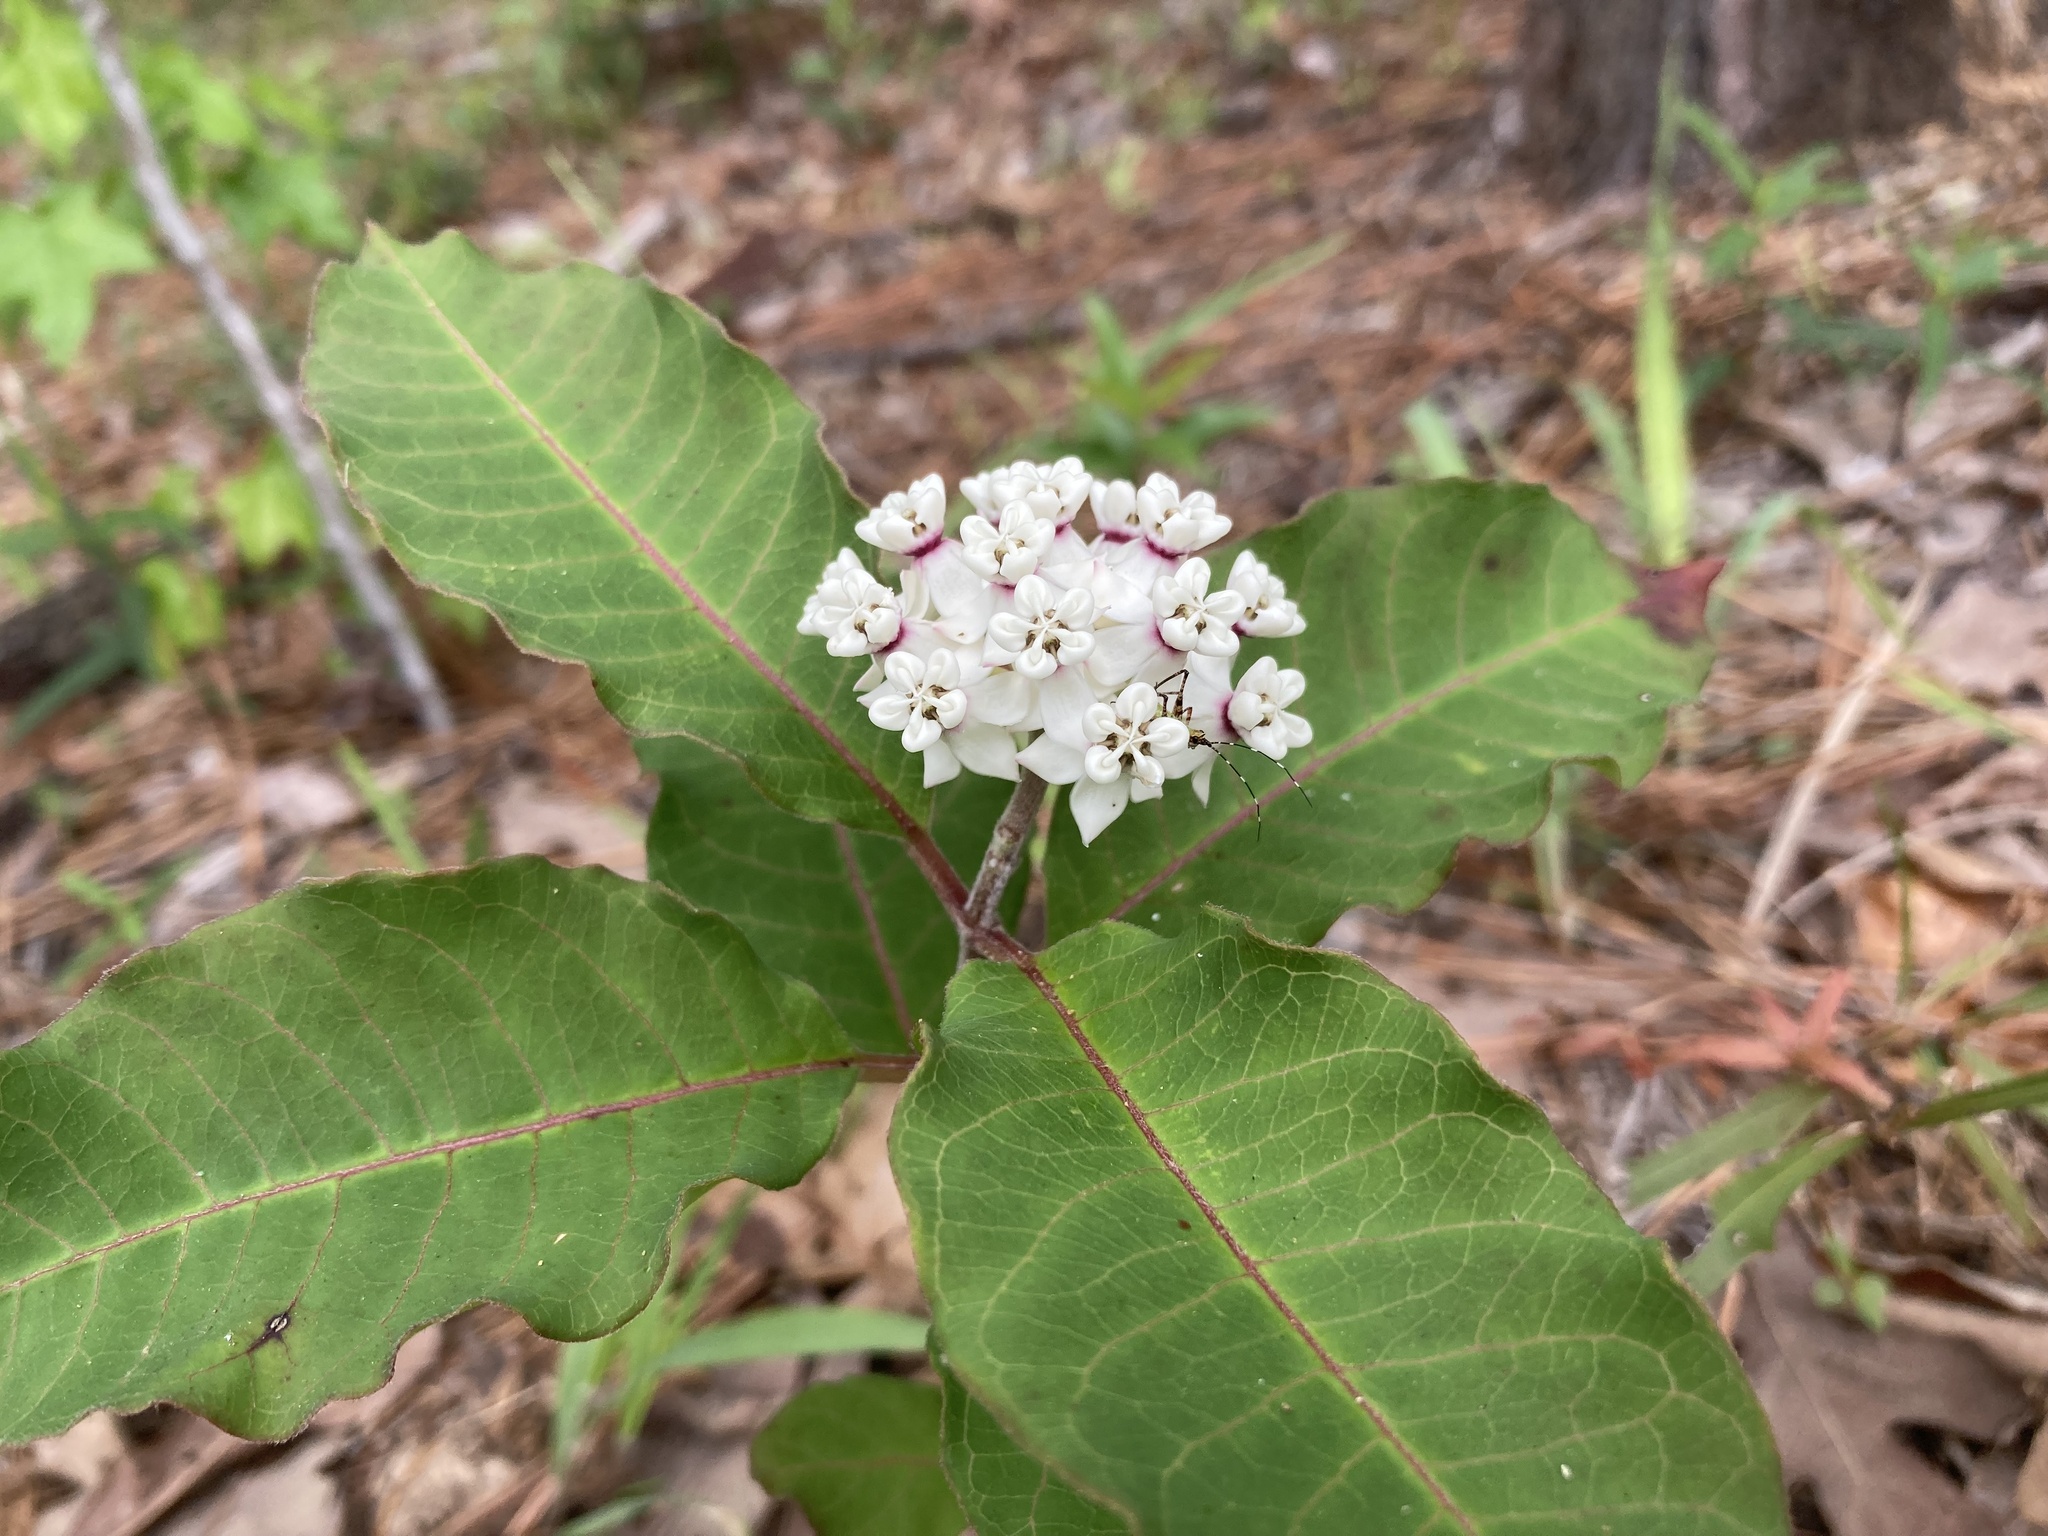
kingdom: Plantae
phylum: Tracheophyta
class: Magnoliopsida
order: Gentianales
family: Apocynaceae
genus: Asclepias
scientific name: Asclepias variegata
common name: Variegated milkweed
